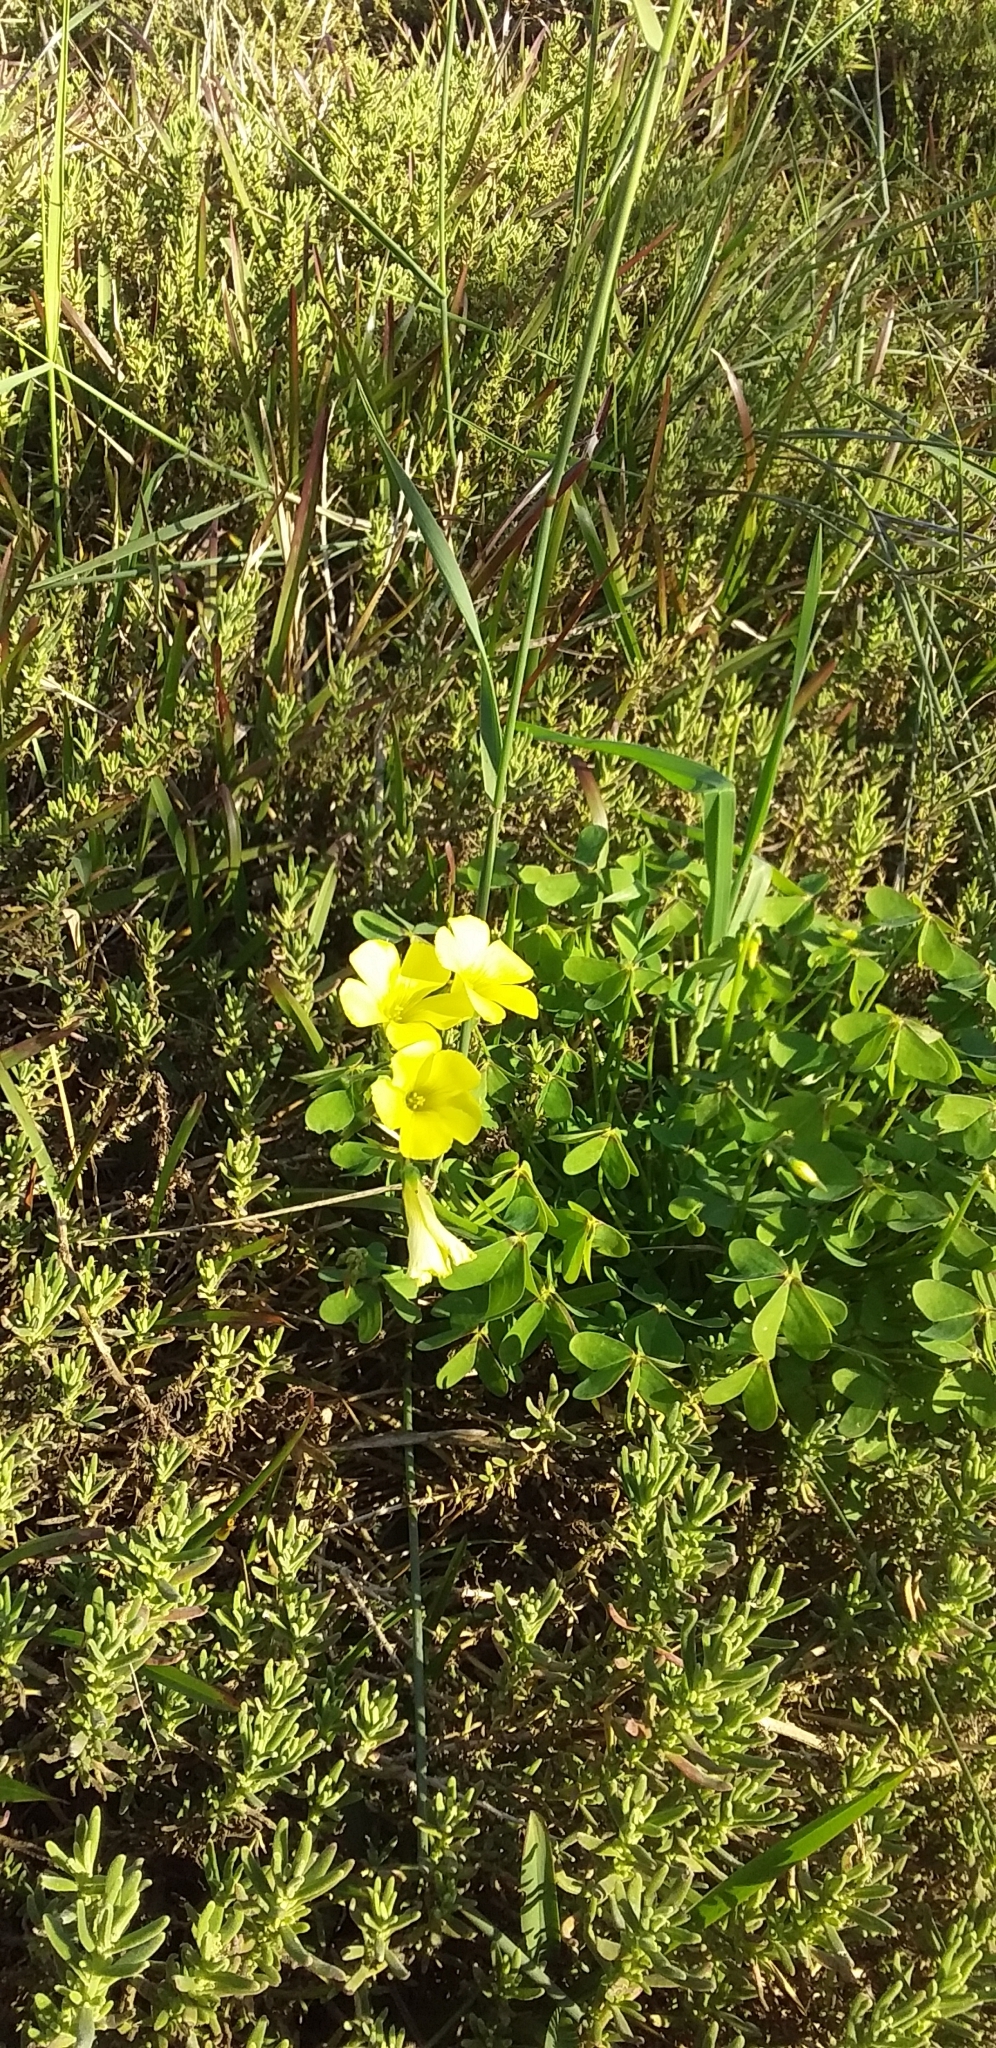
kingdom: Plantae
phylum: Tracheophyta
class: Magnoliopsida
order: Oxalidales
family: Oxalidaceae
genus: Oxalis
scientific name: Oxalis pes-caprae
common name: Bermuda-buttercup
